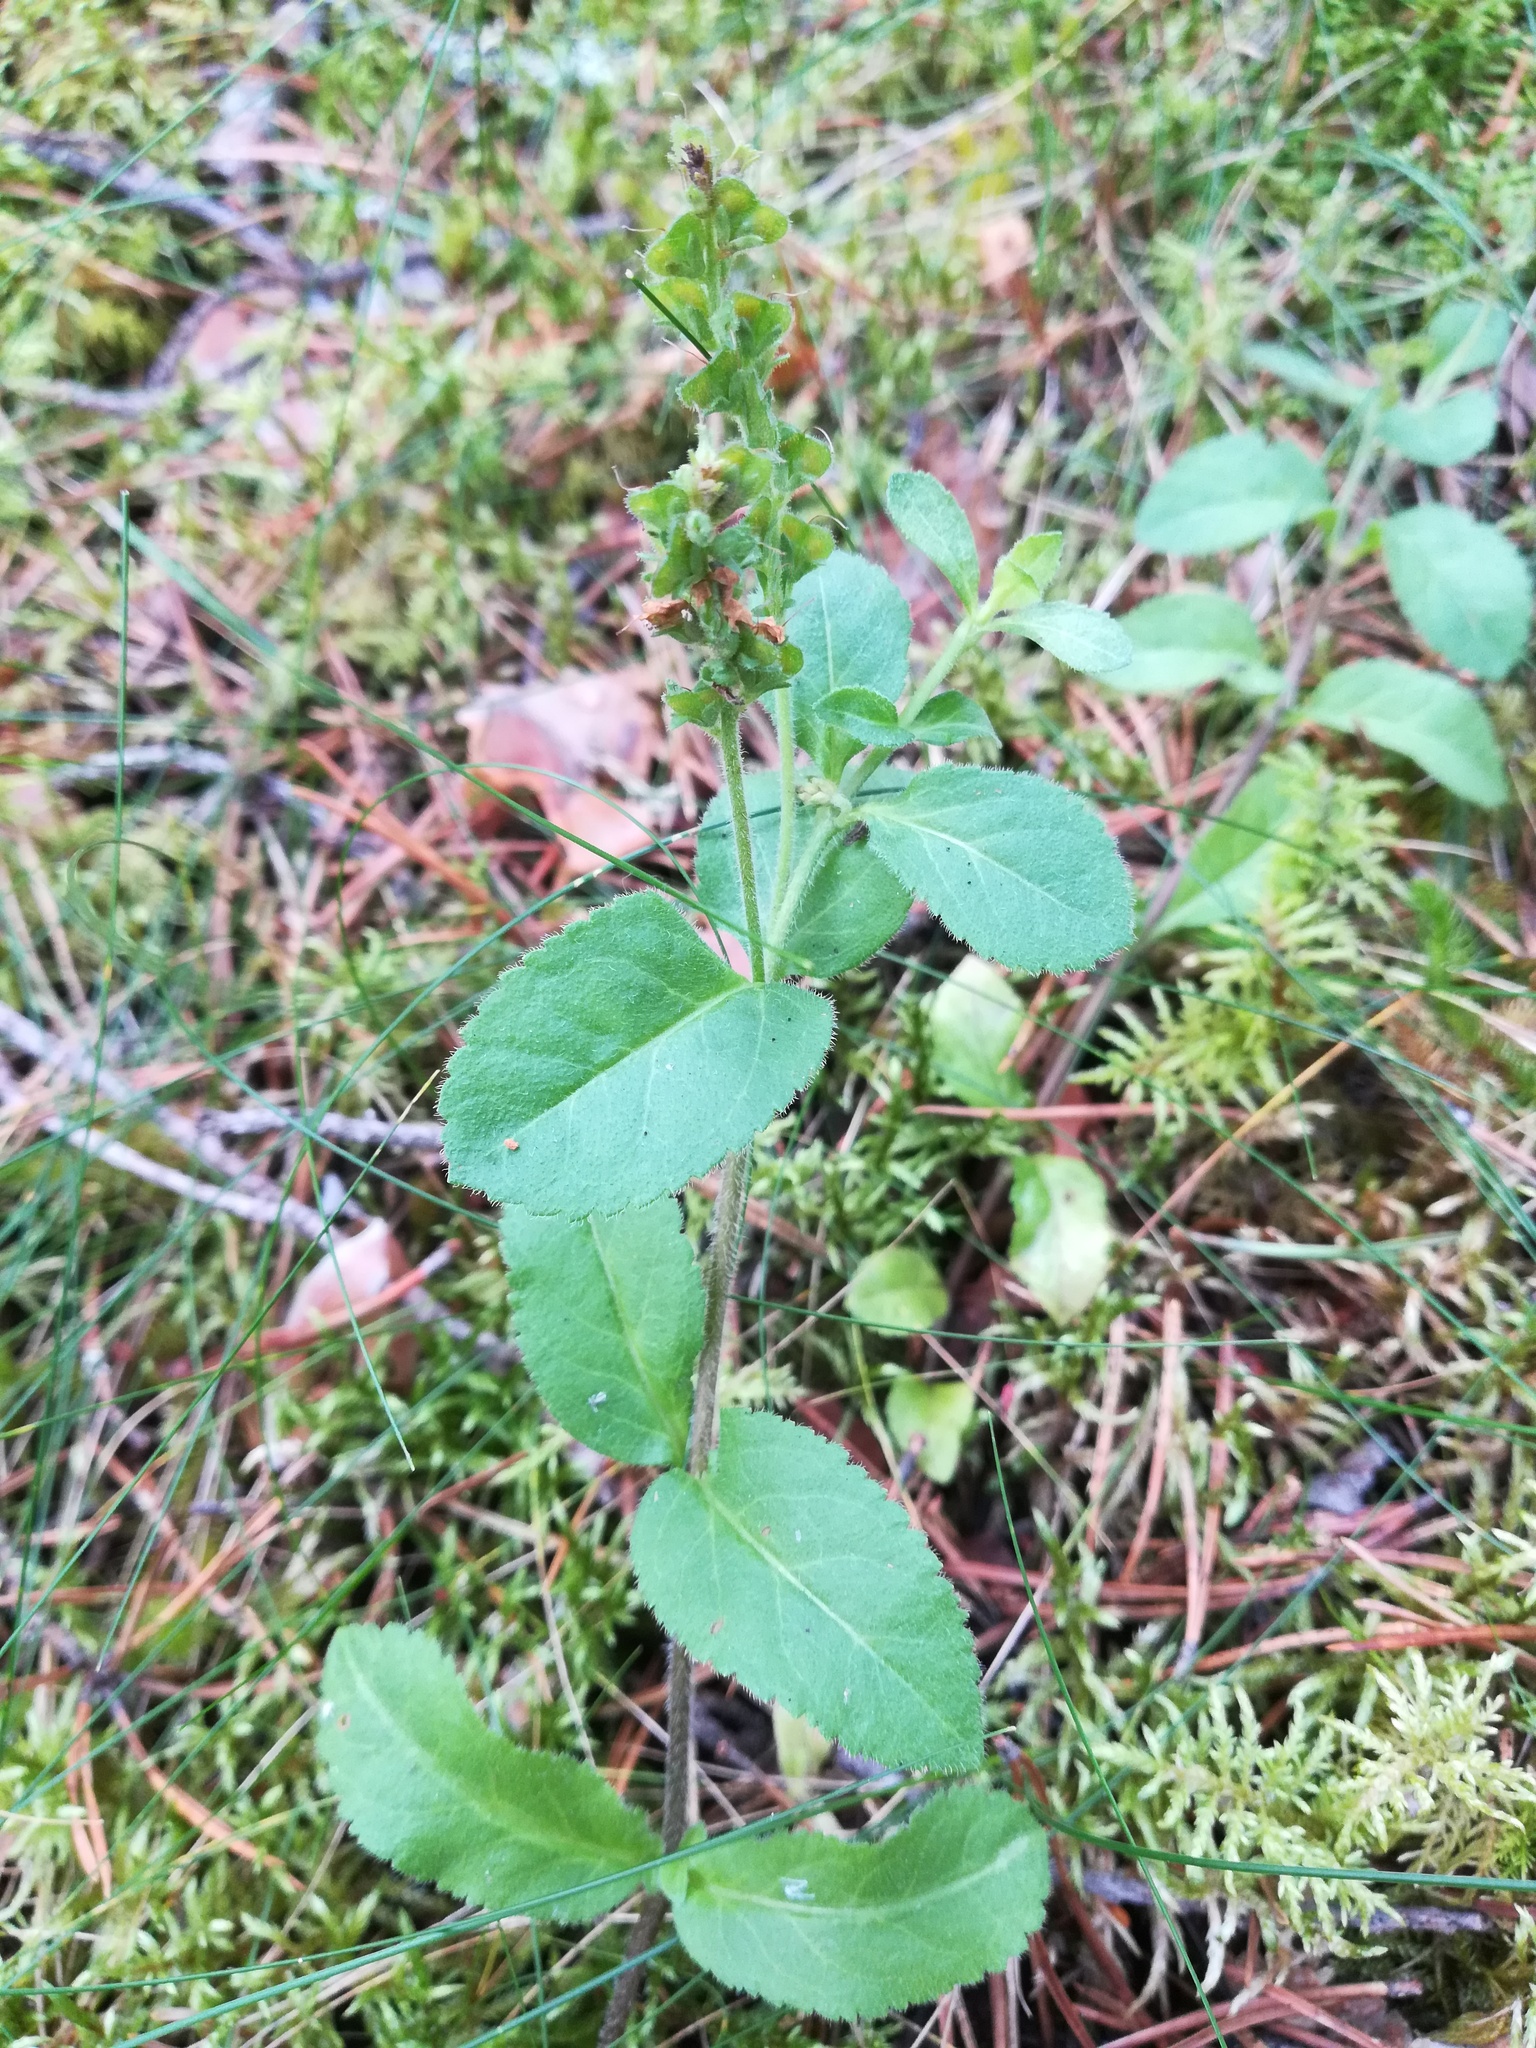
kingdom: Plantae
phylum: Tracheophyta
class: Magnoliopsida
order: Lamiales
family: Plantaginaceae
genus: Veronica
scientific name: Veronica officinalis
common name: Common speedwell
